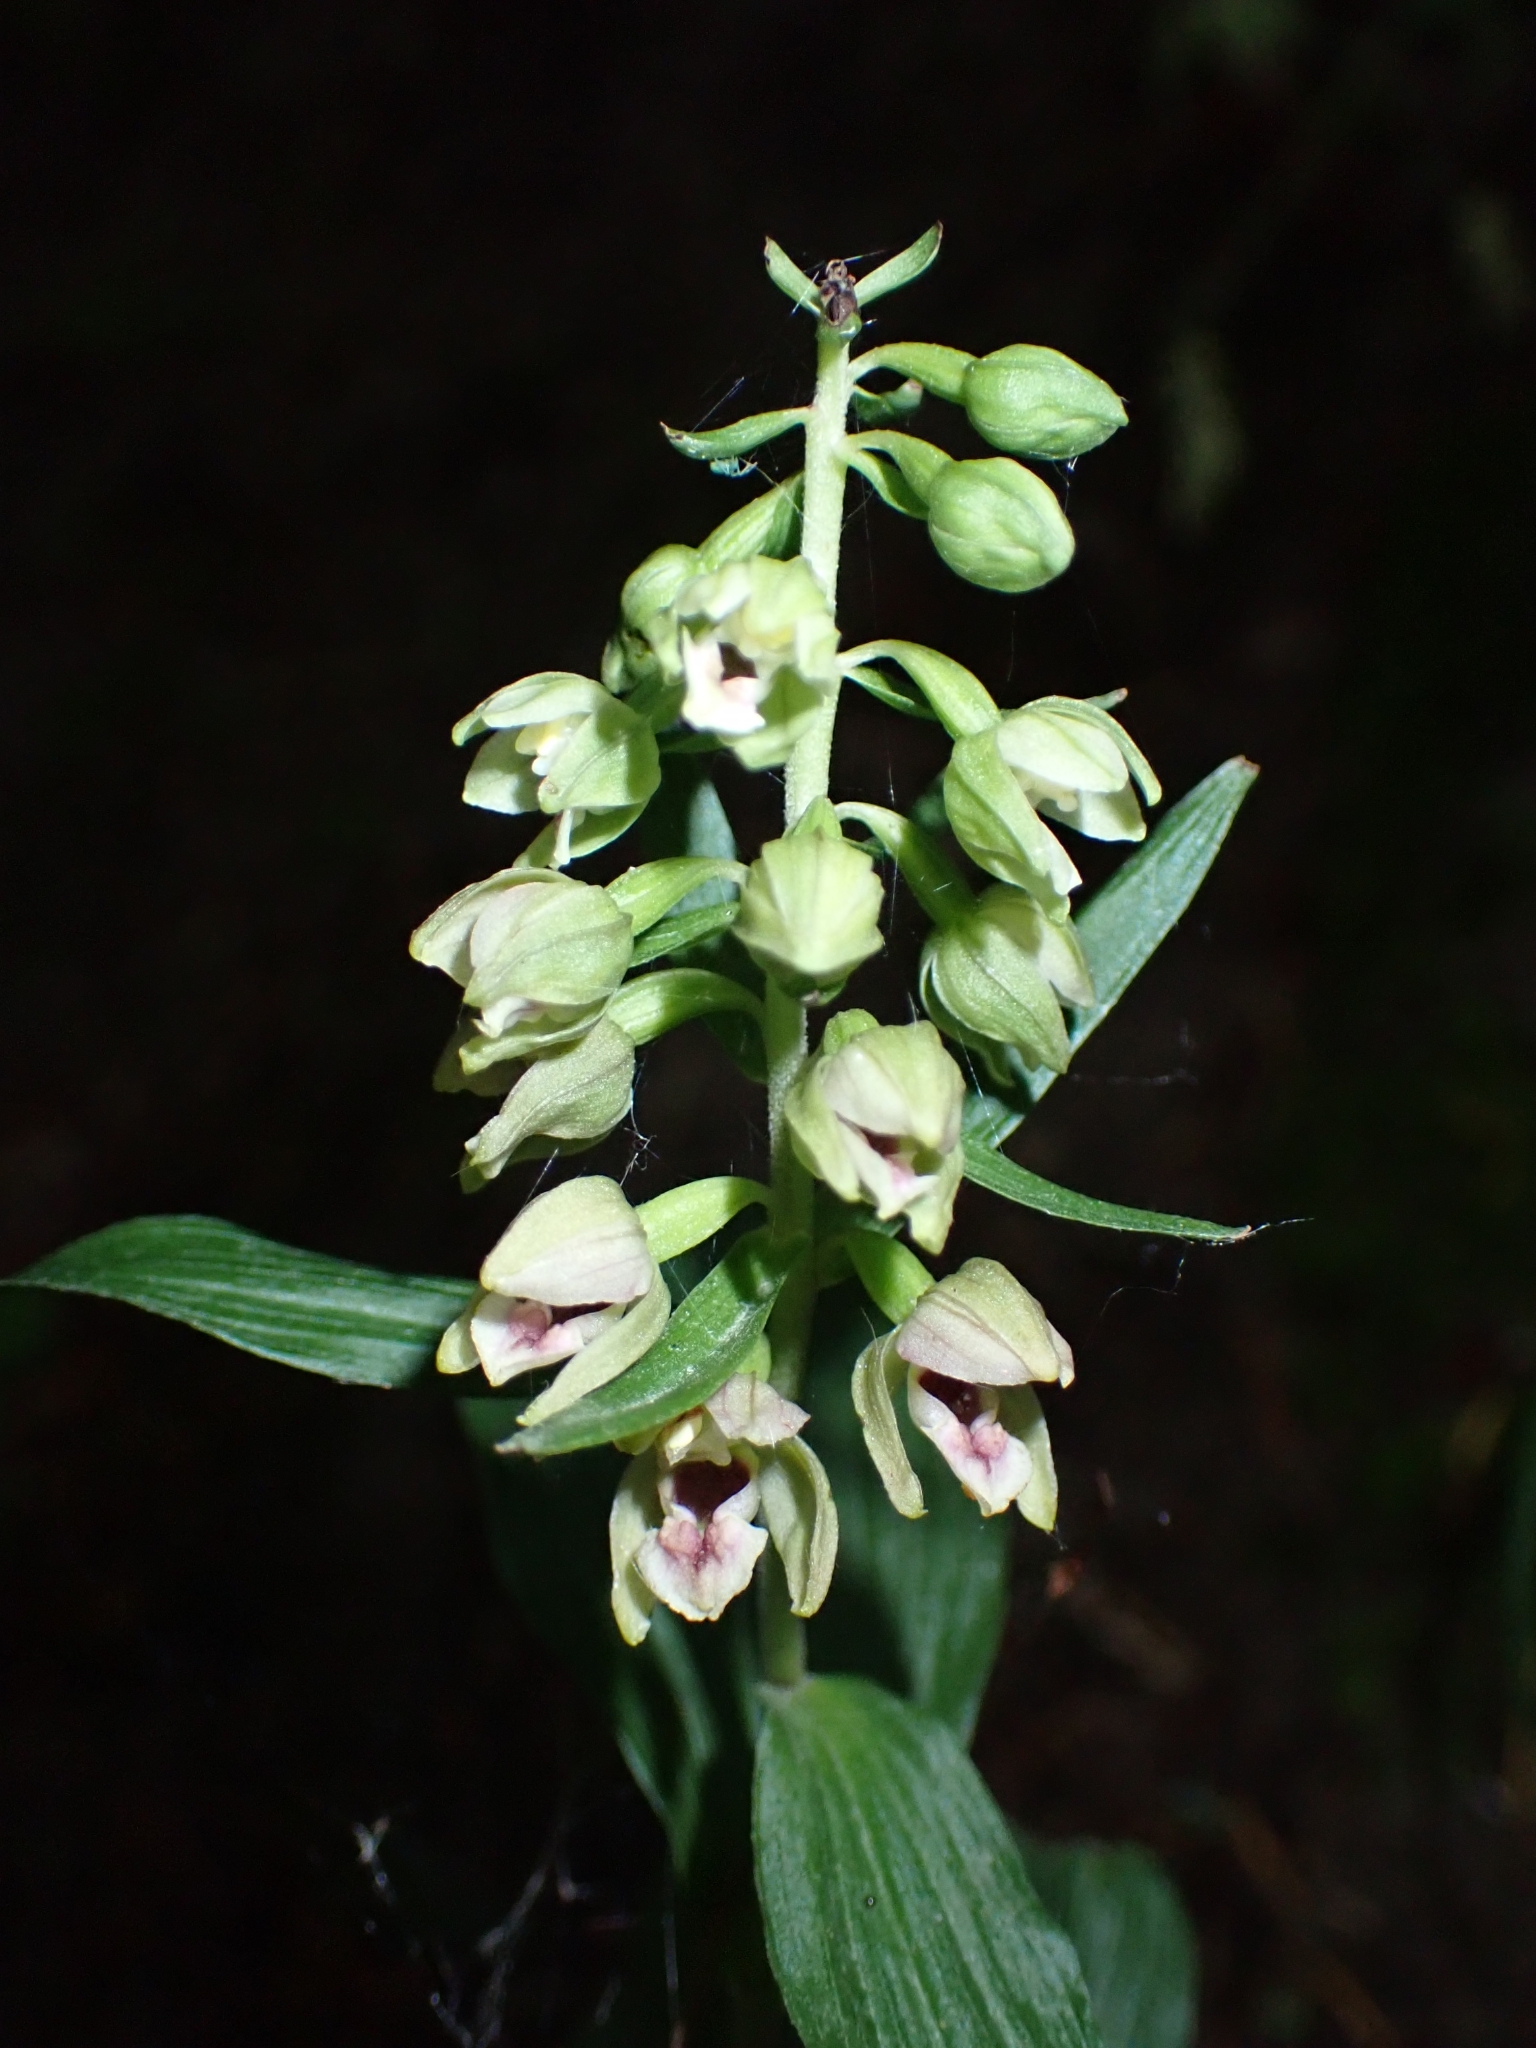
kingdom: Plantae
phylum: Tracheophyta
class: Liliopsida
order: Asparagales
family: Orchidaceae
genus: Epipactis
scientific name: Epipactis helleborine
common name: Broad-leaved helleborine
